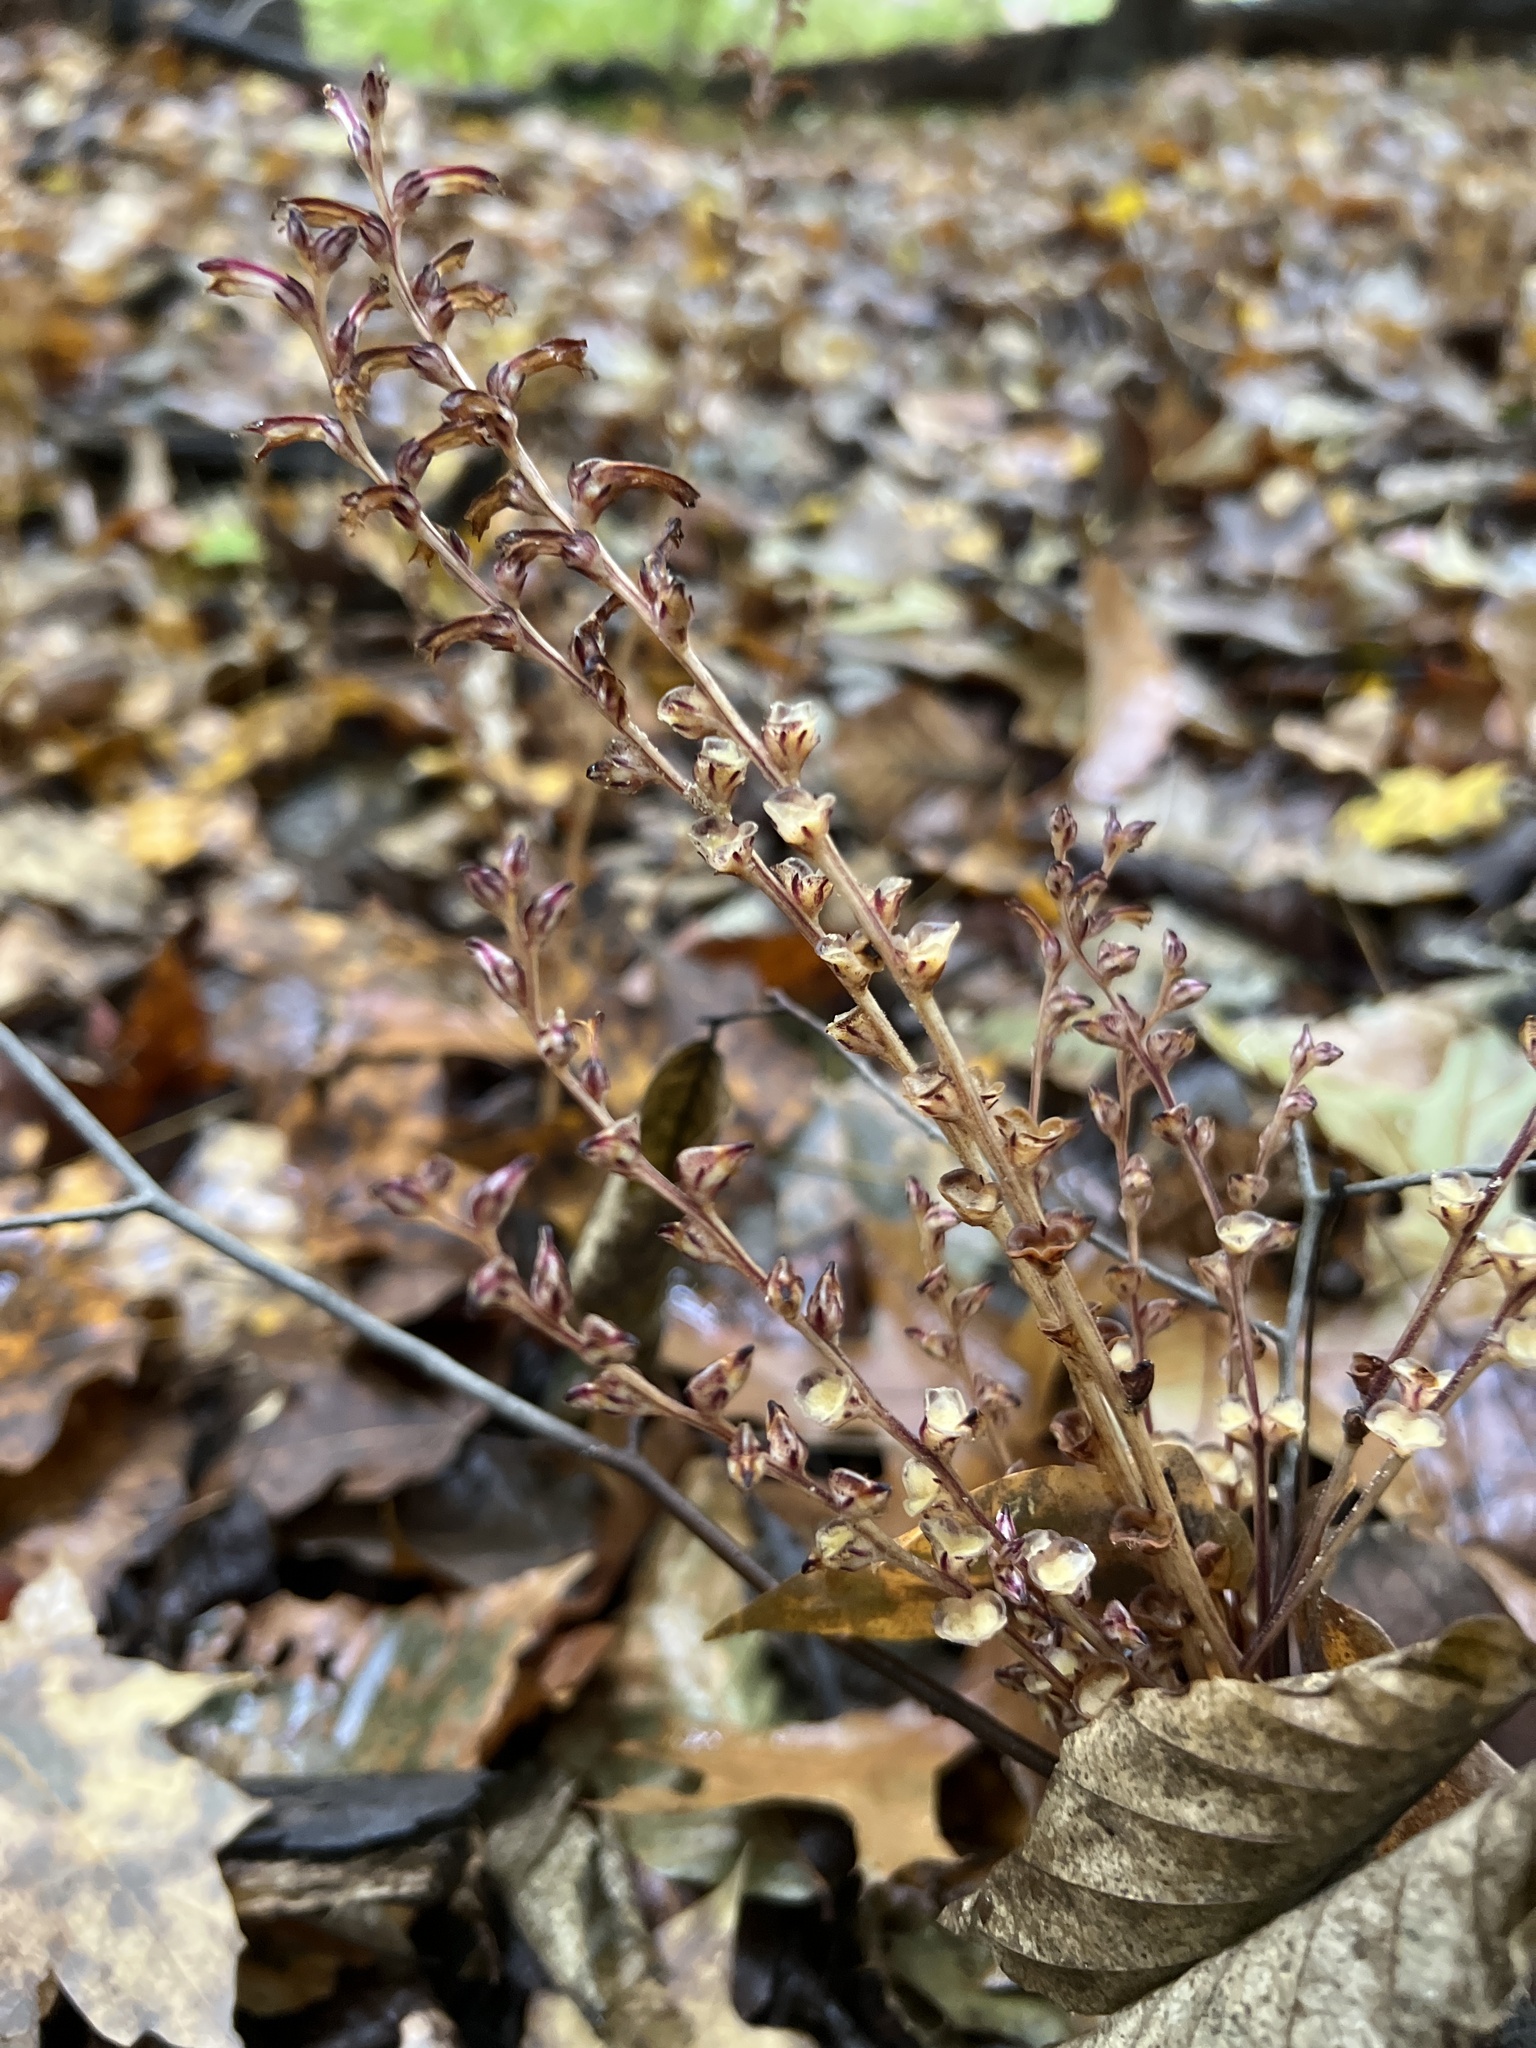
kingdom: Plantae
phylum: Tracheophyta
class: Magnoliopsida
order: Lamiales
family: Orobanchaceae
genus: Epifagus
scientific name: Epifagus virginiana
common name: Beechdrops
